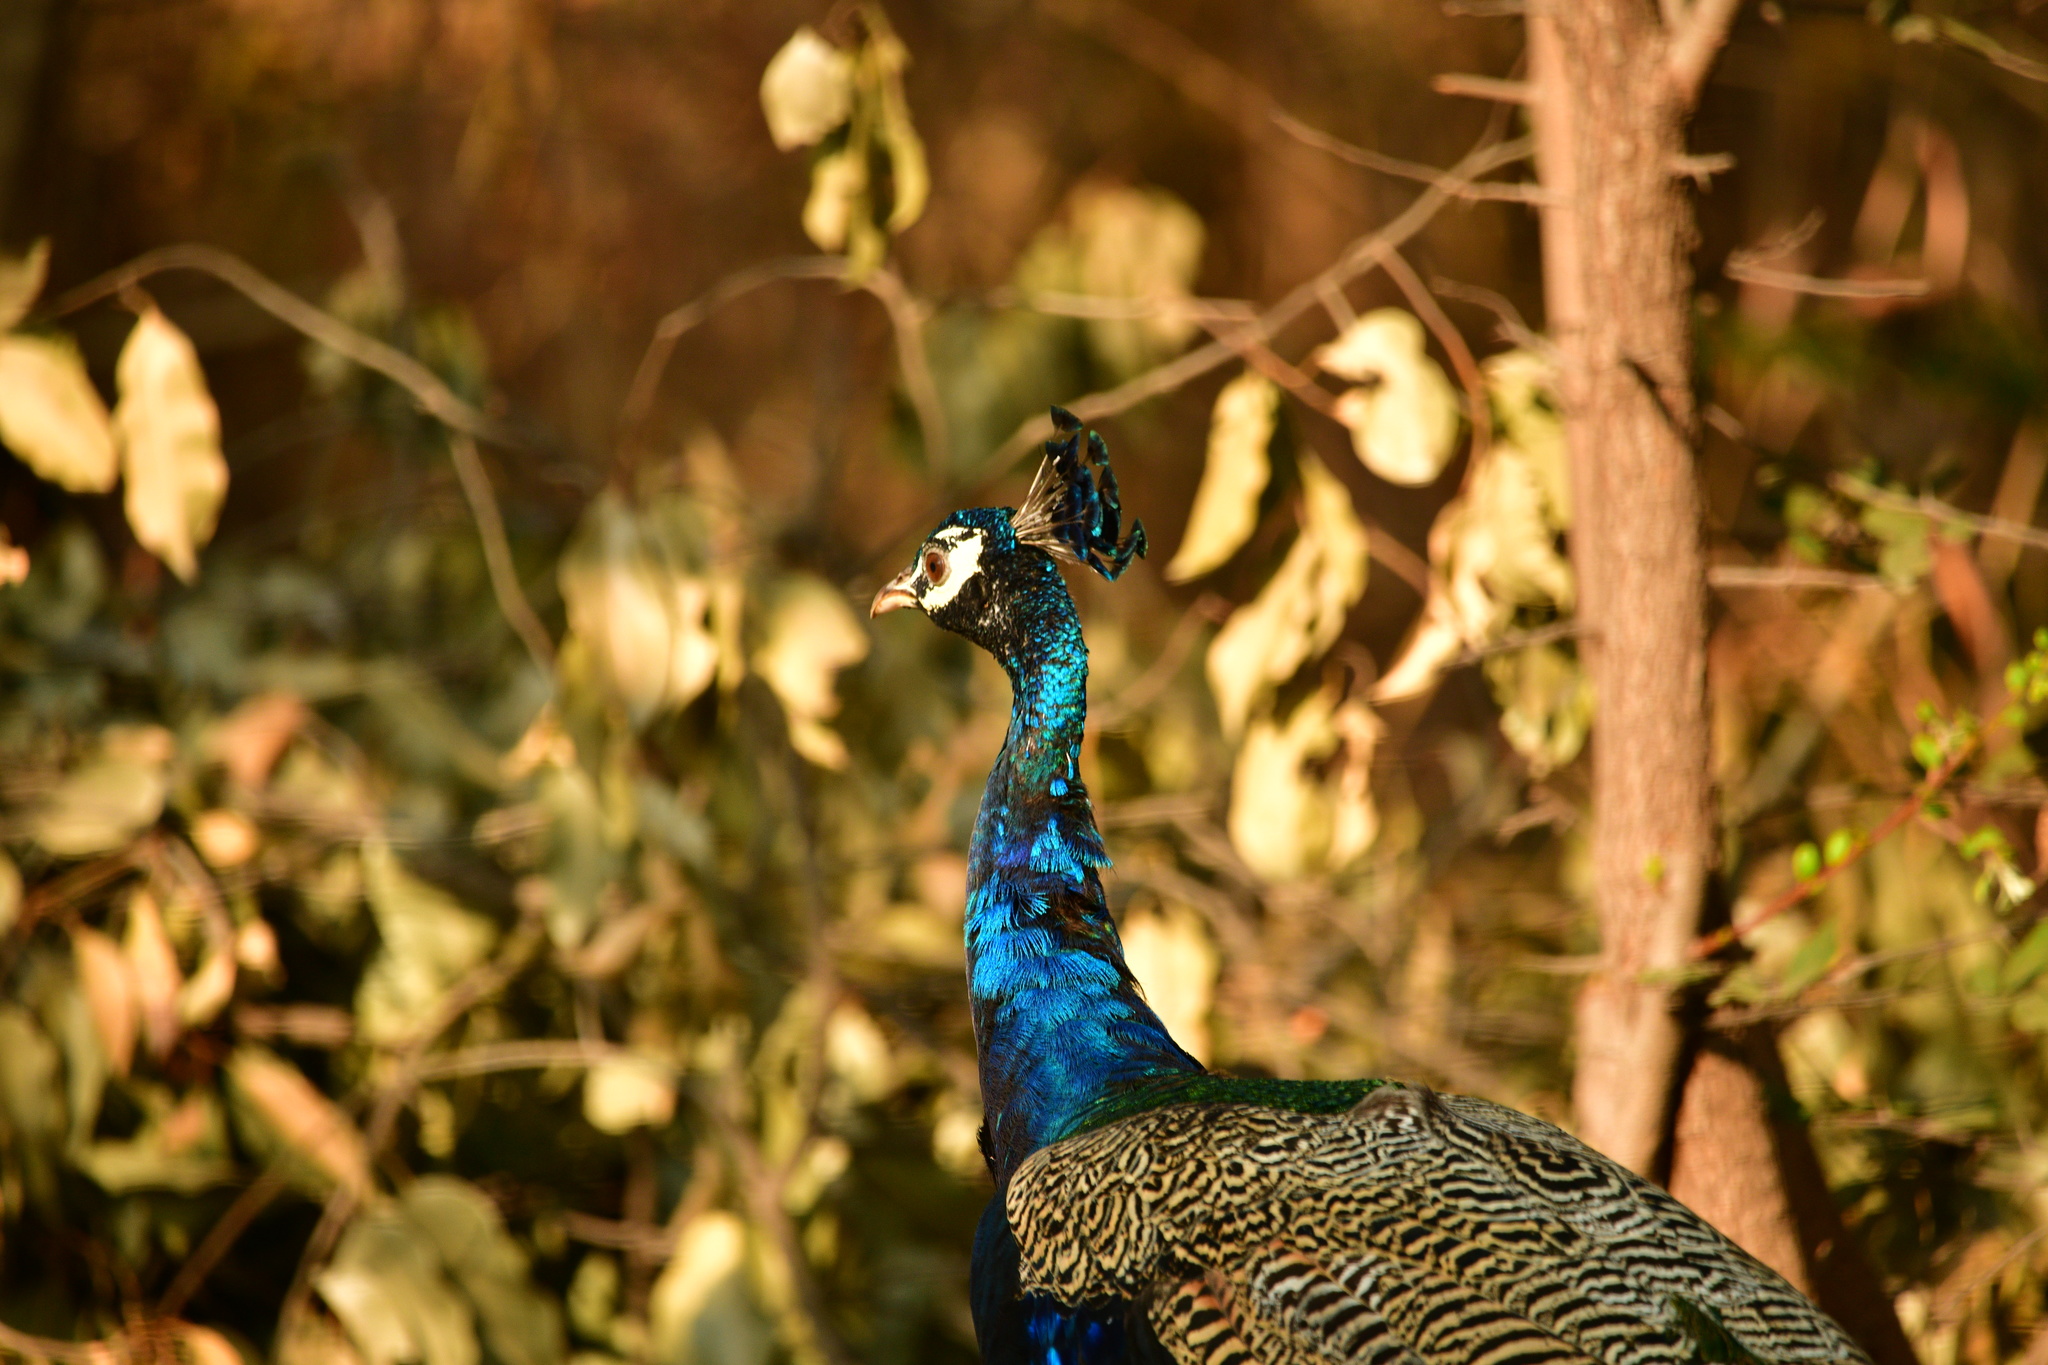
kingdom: Animalia
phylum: Chordata
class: Aves
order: Galliformes
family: Phasianidae
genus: Pavo
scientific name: Pavo cristatus
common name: Indian peafowl
